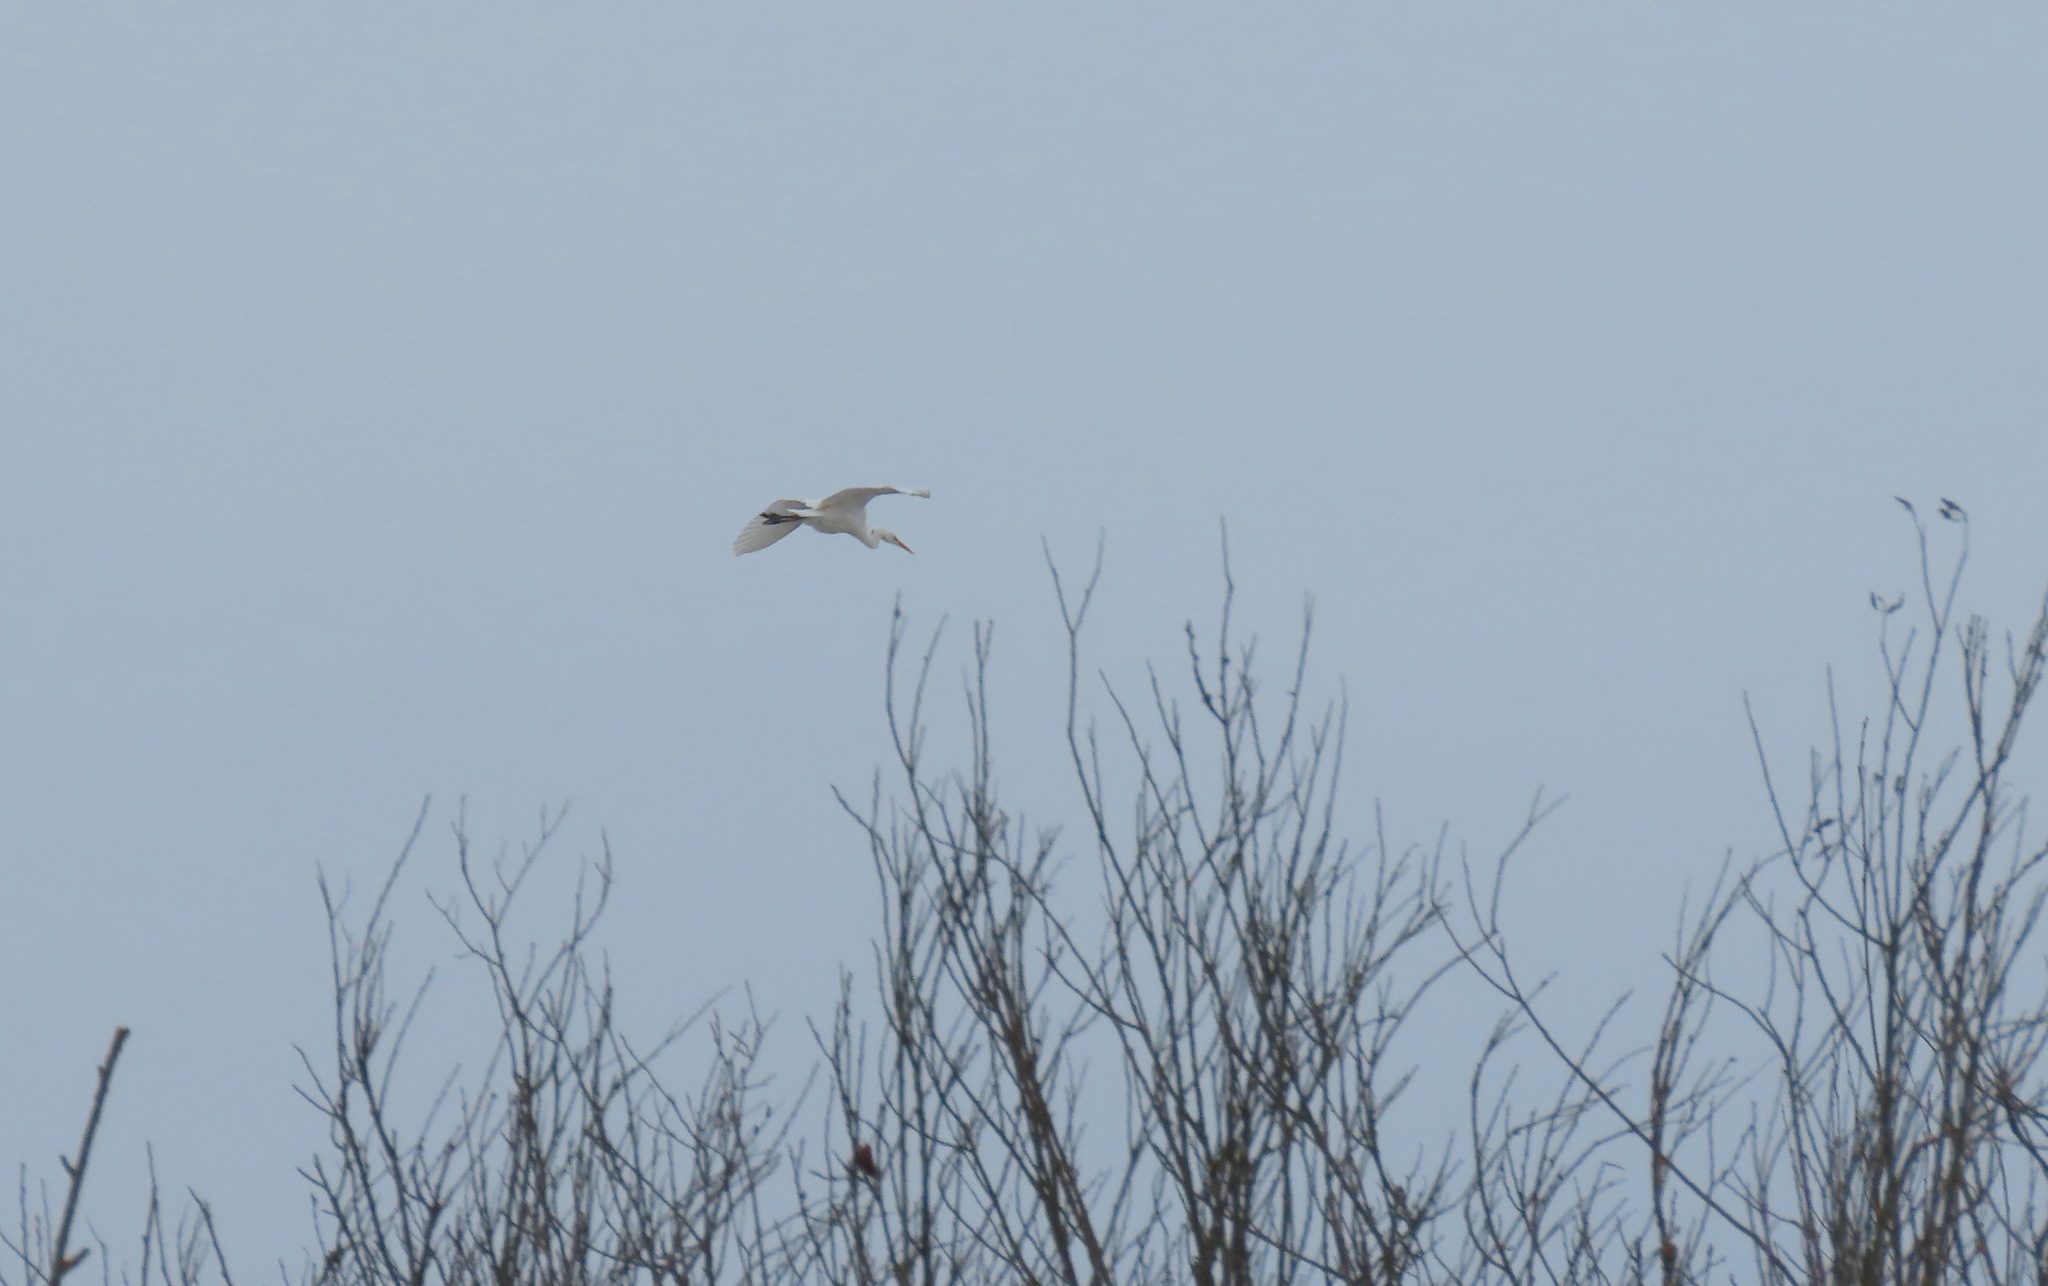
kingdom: Animalia
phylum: Chordata
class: Aves
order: Pelecaniformes
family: Ardeidae
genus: Ardea
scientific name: Ardea alba
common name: Great egret
